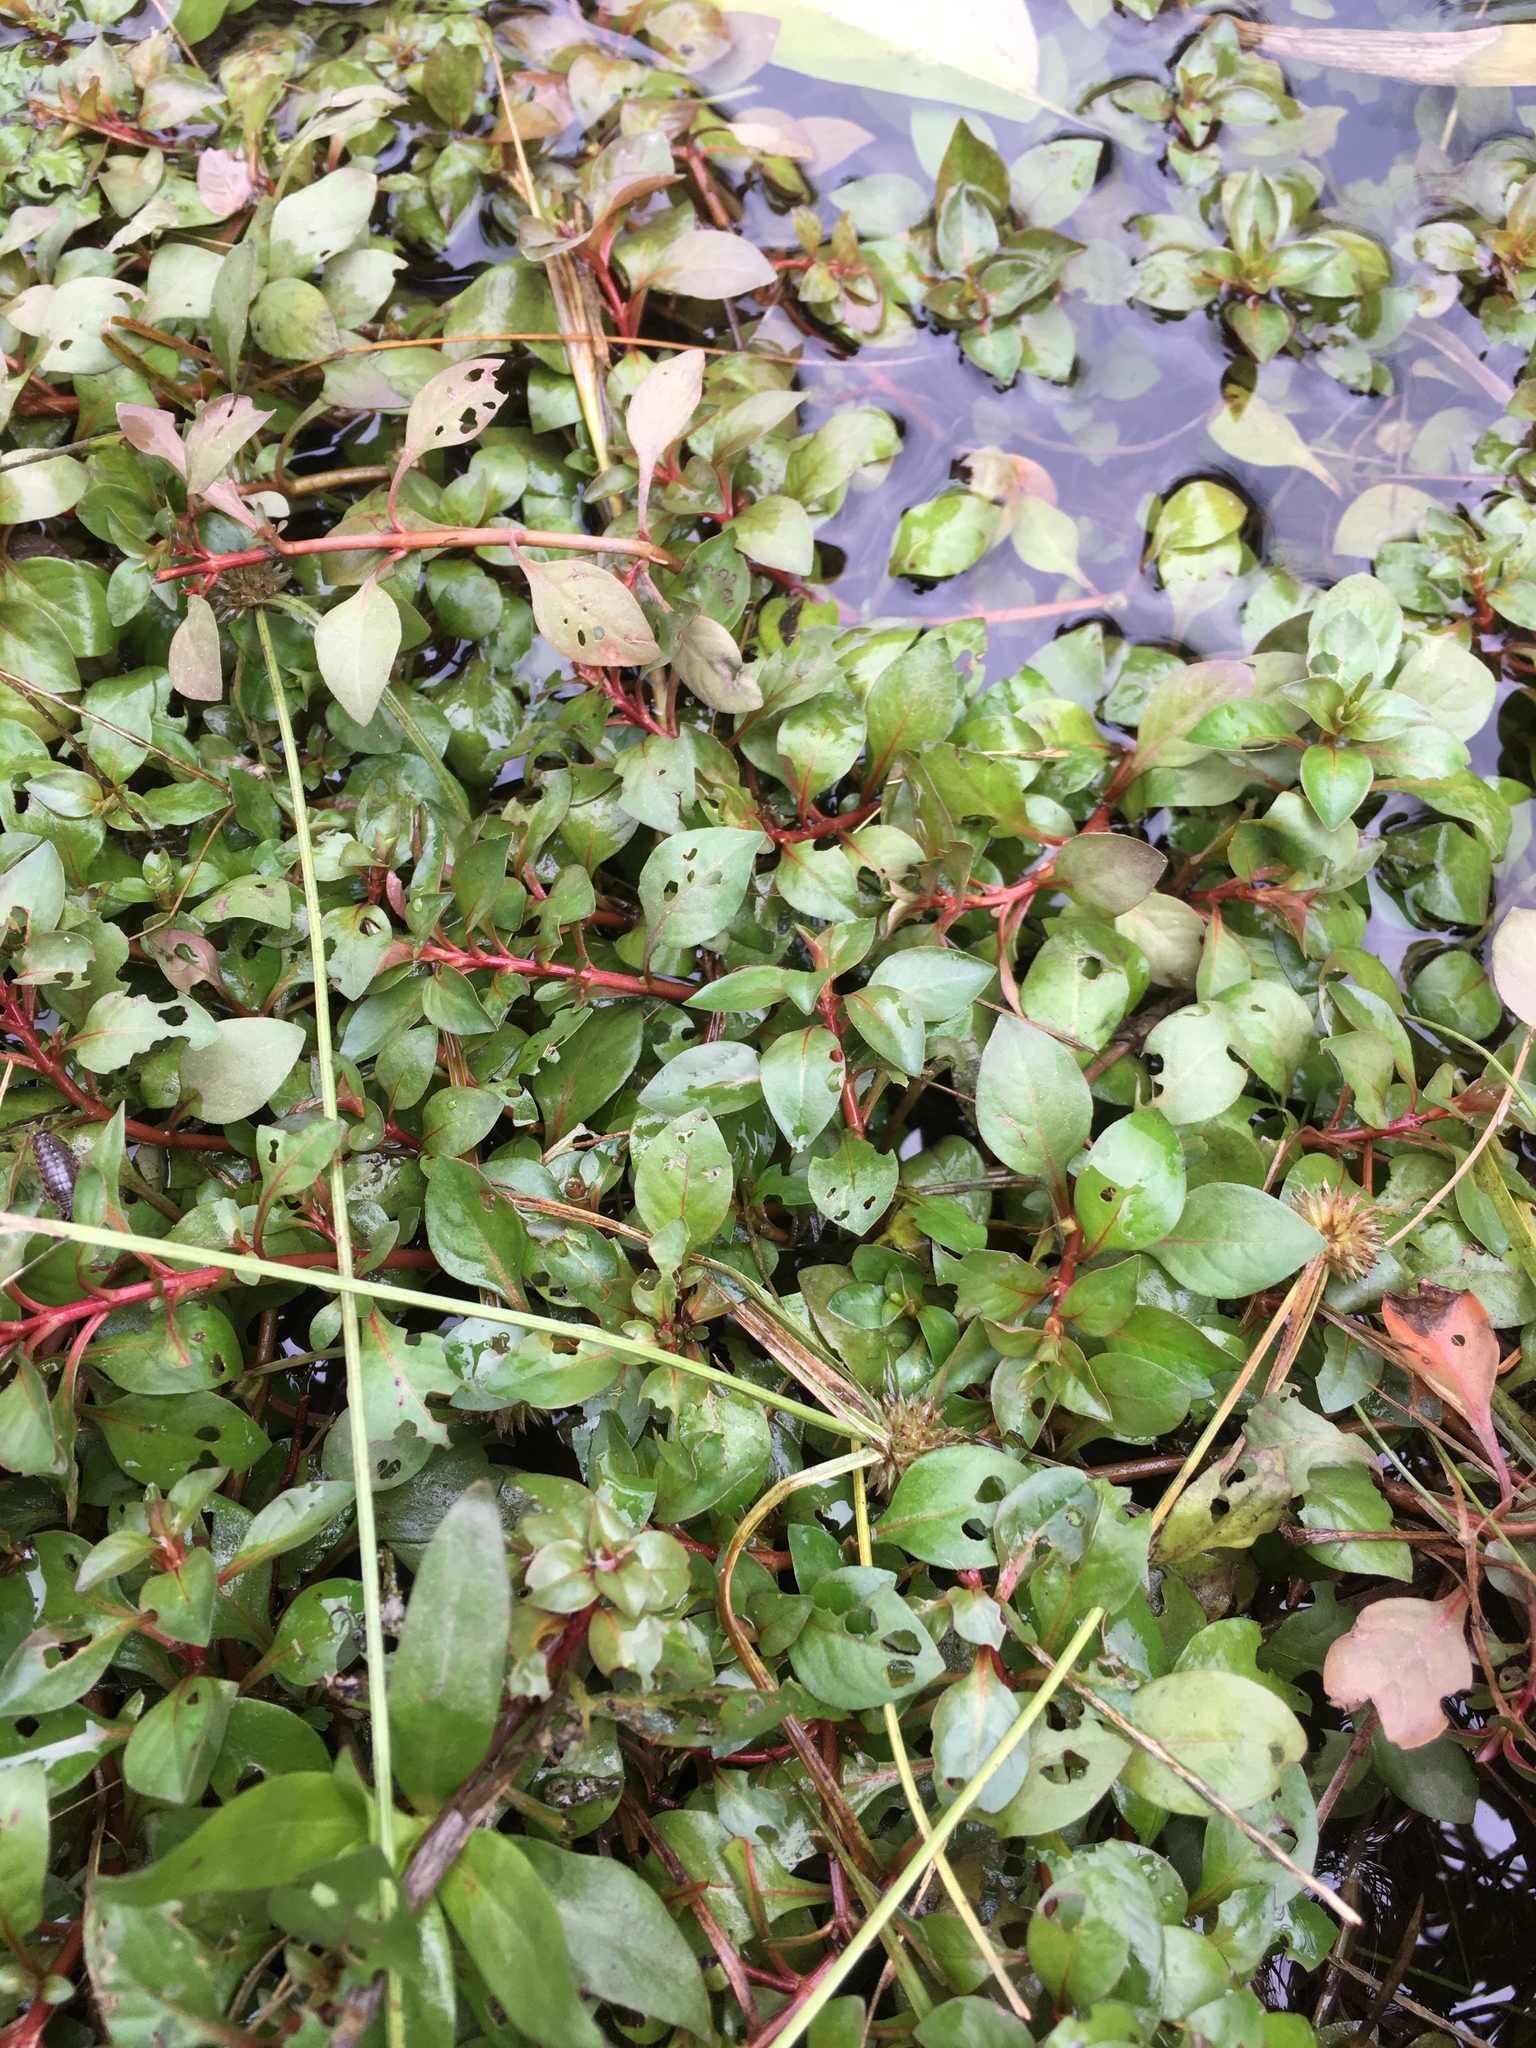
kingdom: Plantae
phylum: Tracheophyta
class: Magnoliopsida
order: Myrtales
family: Onagraceae
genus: Ludwigia
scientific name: Ludwigia palustris
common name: Hampshire-purslane
